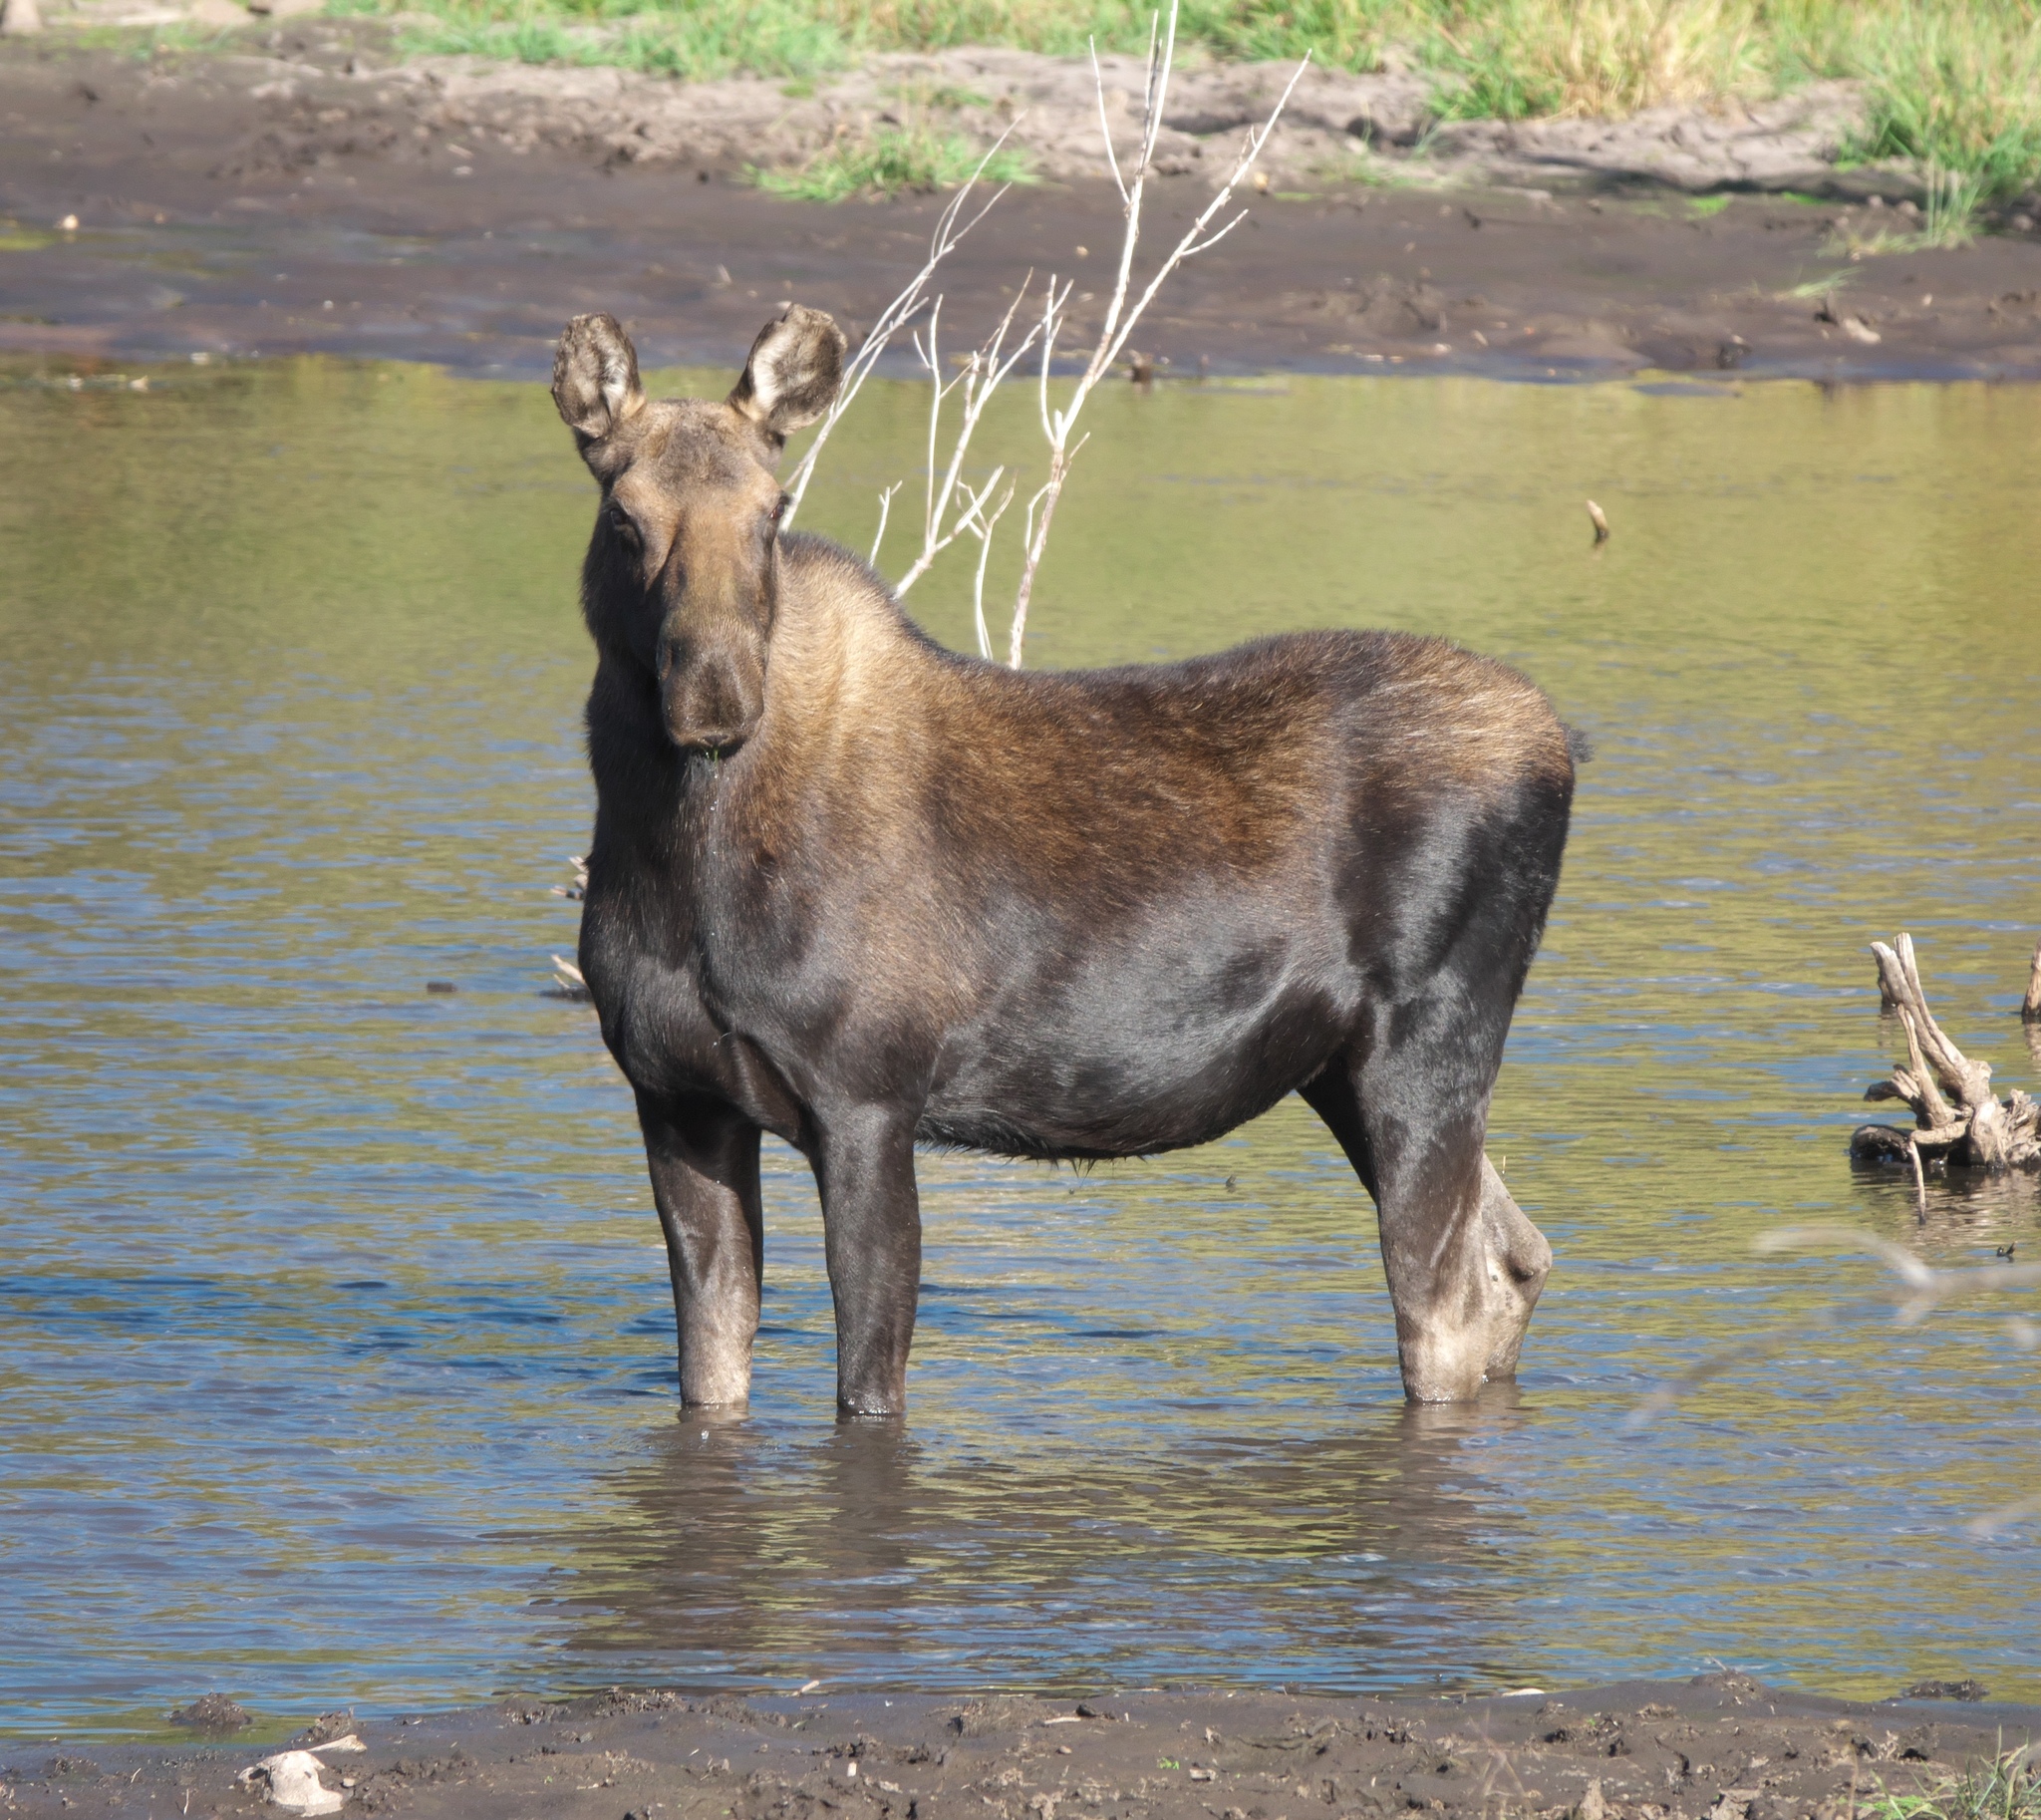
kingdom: Animalia
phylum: Chordata
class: Mammalia
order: Artiodactyla
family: Cervidae
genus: Alces
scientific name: Alces americanus
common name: Moose
